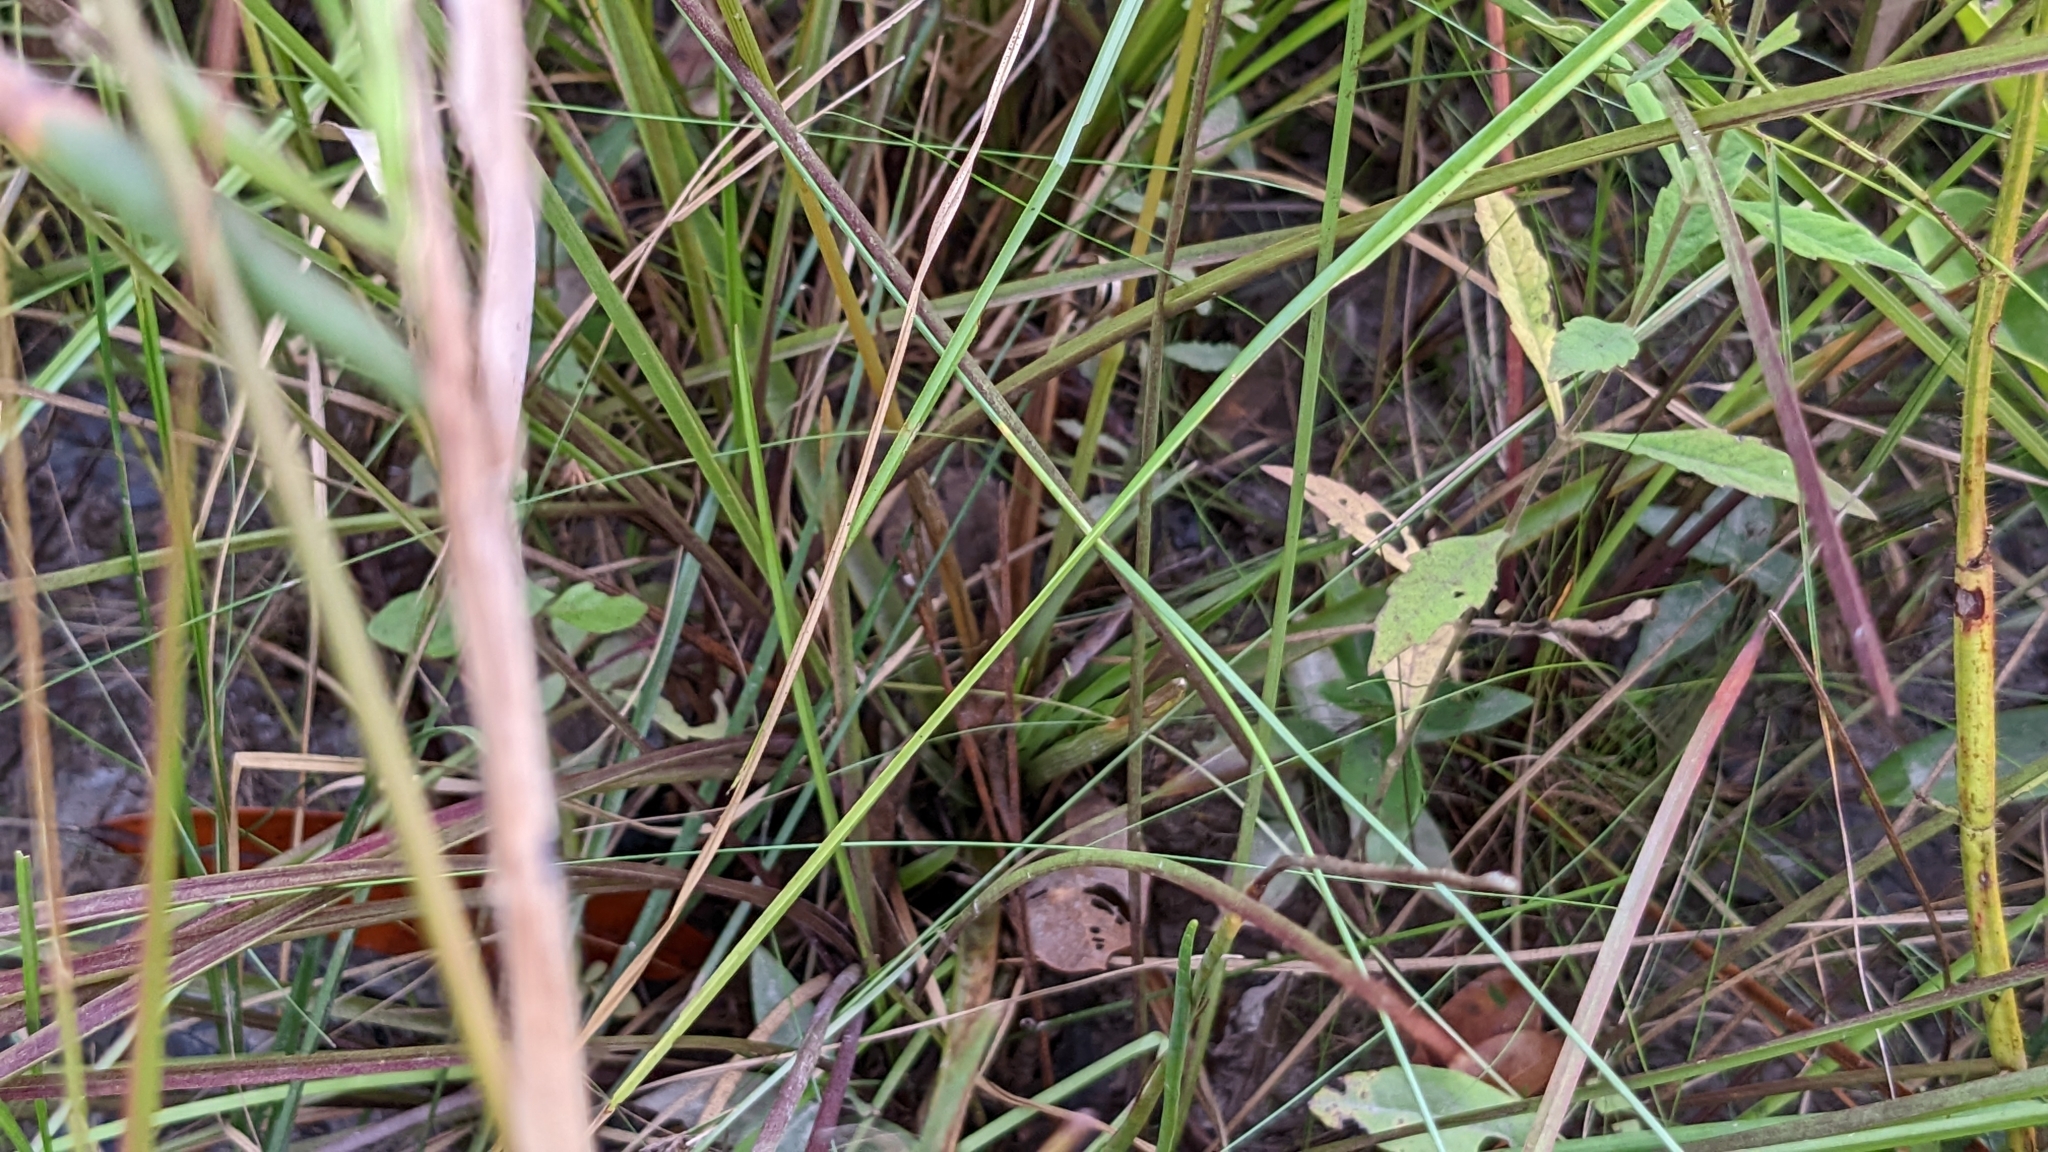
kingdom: Plantae
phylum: Tracheophyta
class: Liliopsida
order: Poales
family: Eriocaulaceae
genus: Eriocaulon
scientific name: Eriocaulon decangulare
